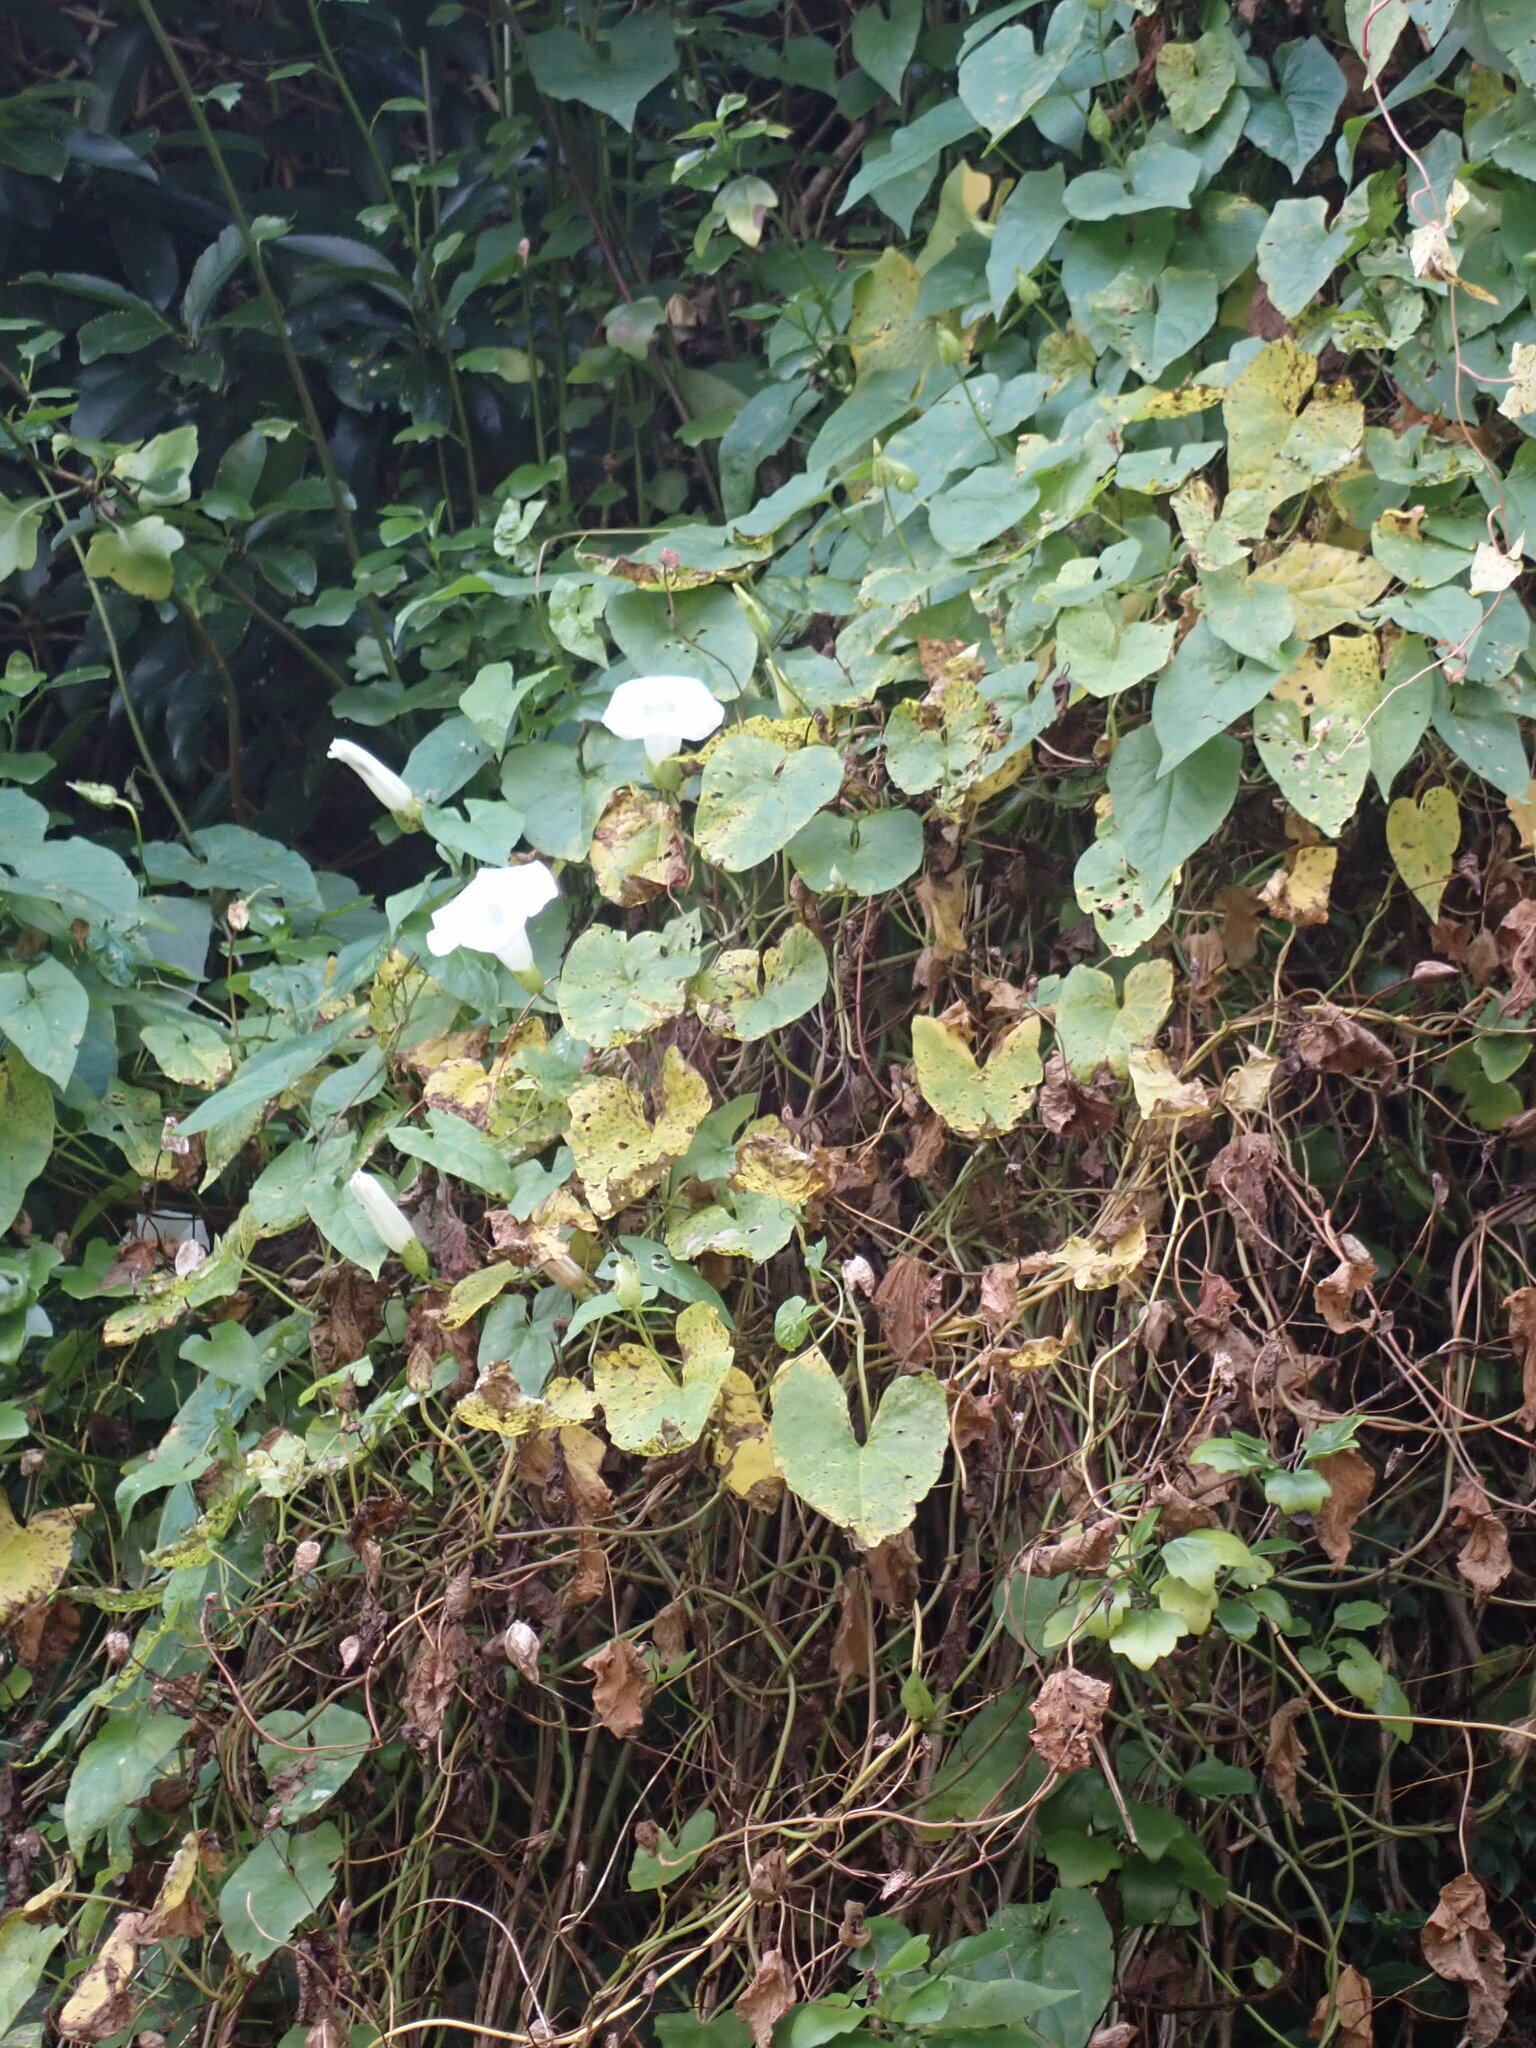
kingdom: Plantae
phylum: Tracheophyta
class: Magnoliopsida
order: Solanales
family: Convolvulaceae
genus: Calystegia
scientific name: Calystegia silvatica
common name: Large bindweed
